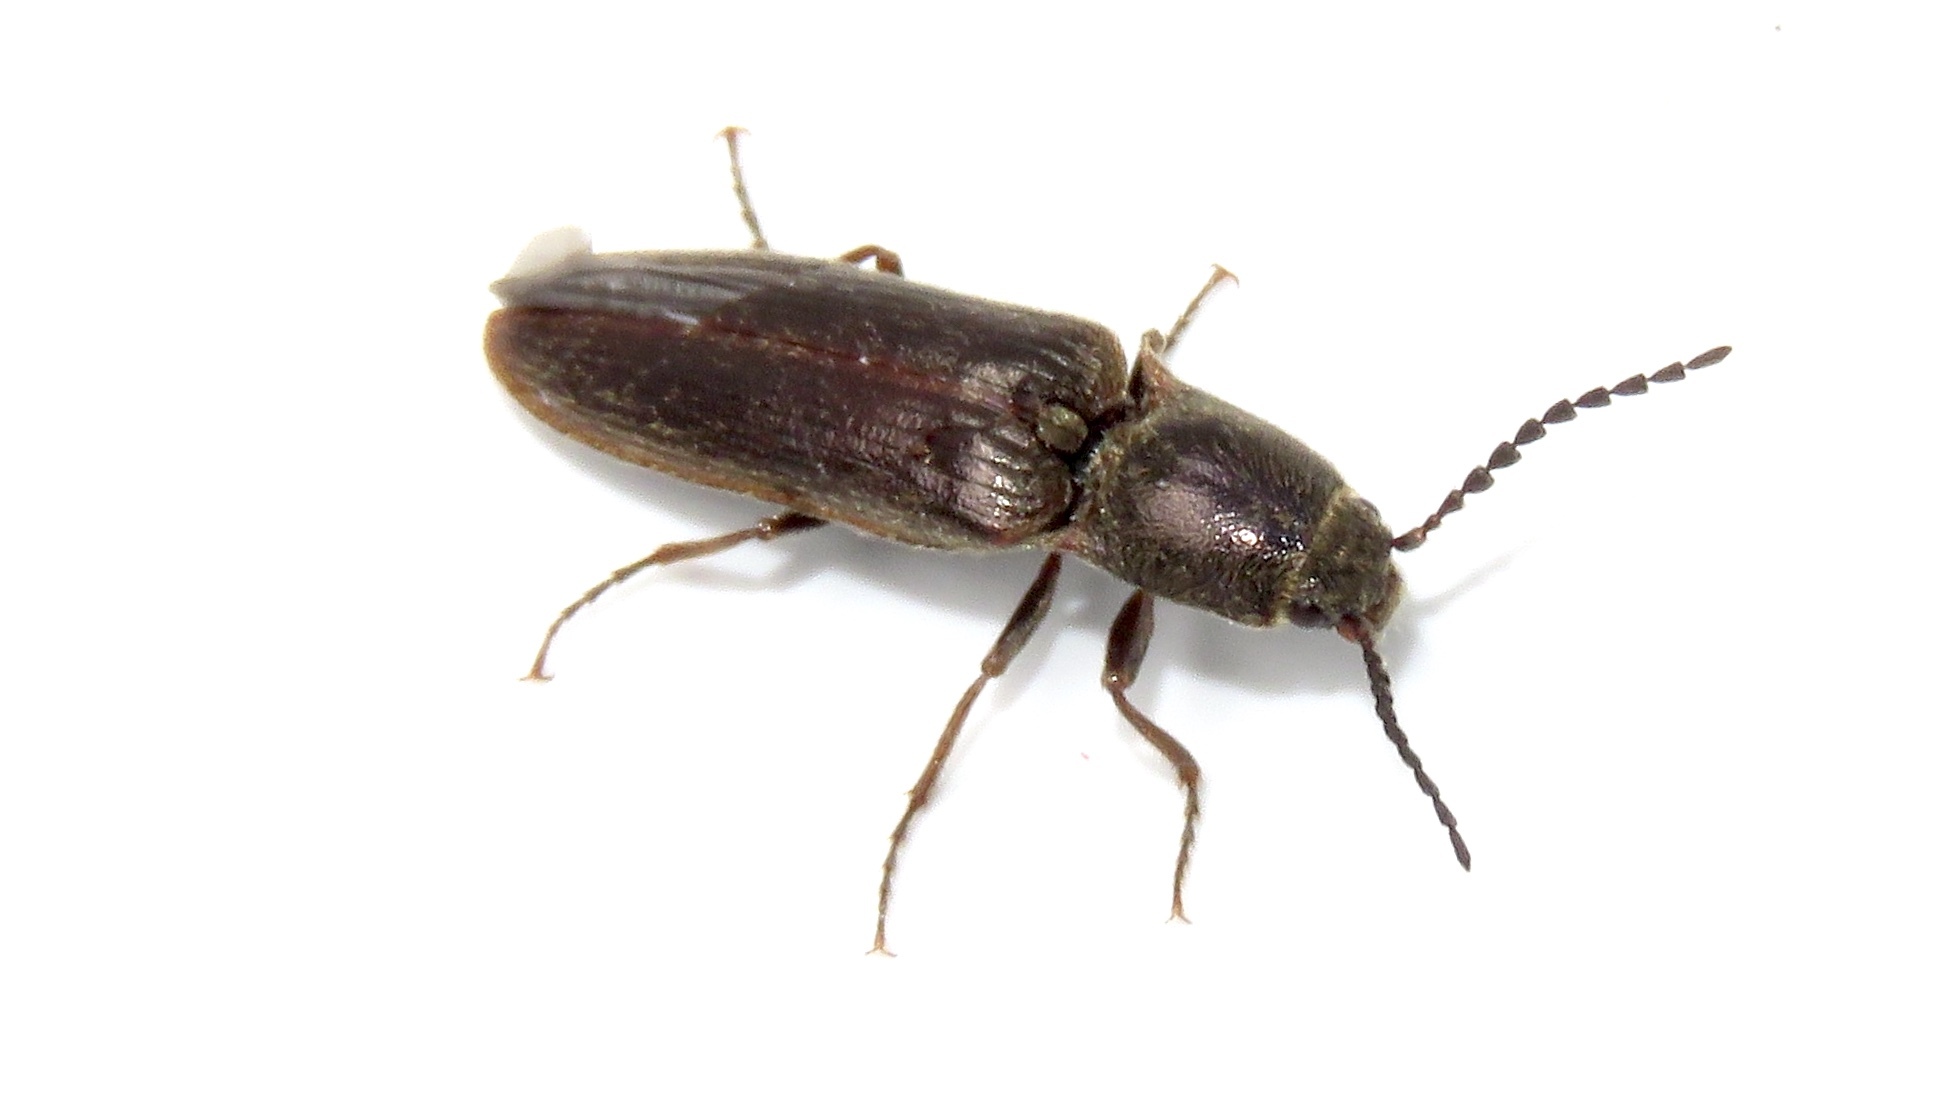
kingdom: Animalia
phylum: Arthropoda
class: Insecta
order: Coleoptera
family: Elateridae
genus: Sylvanelater
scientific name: Sylvanelater cylindriformis
